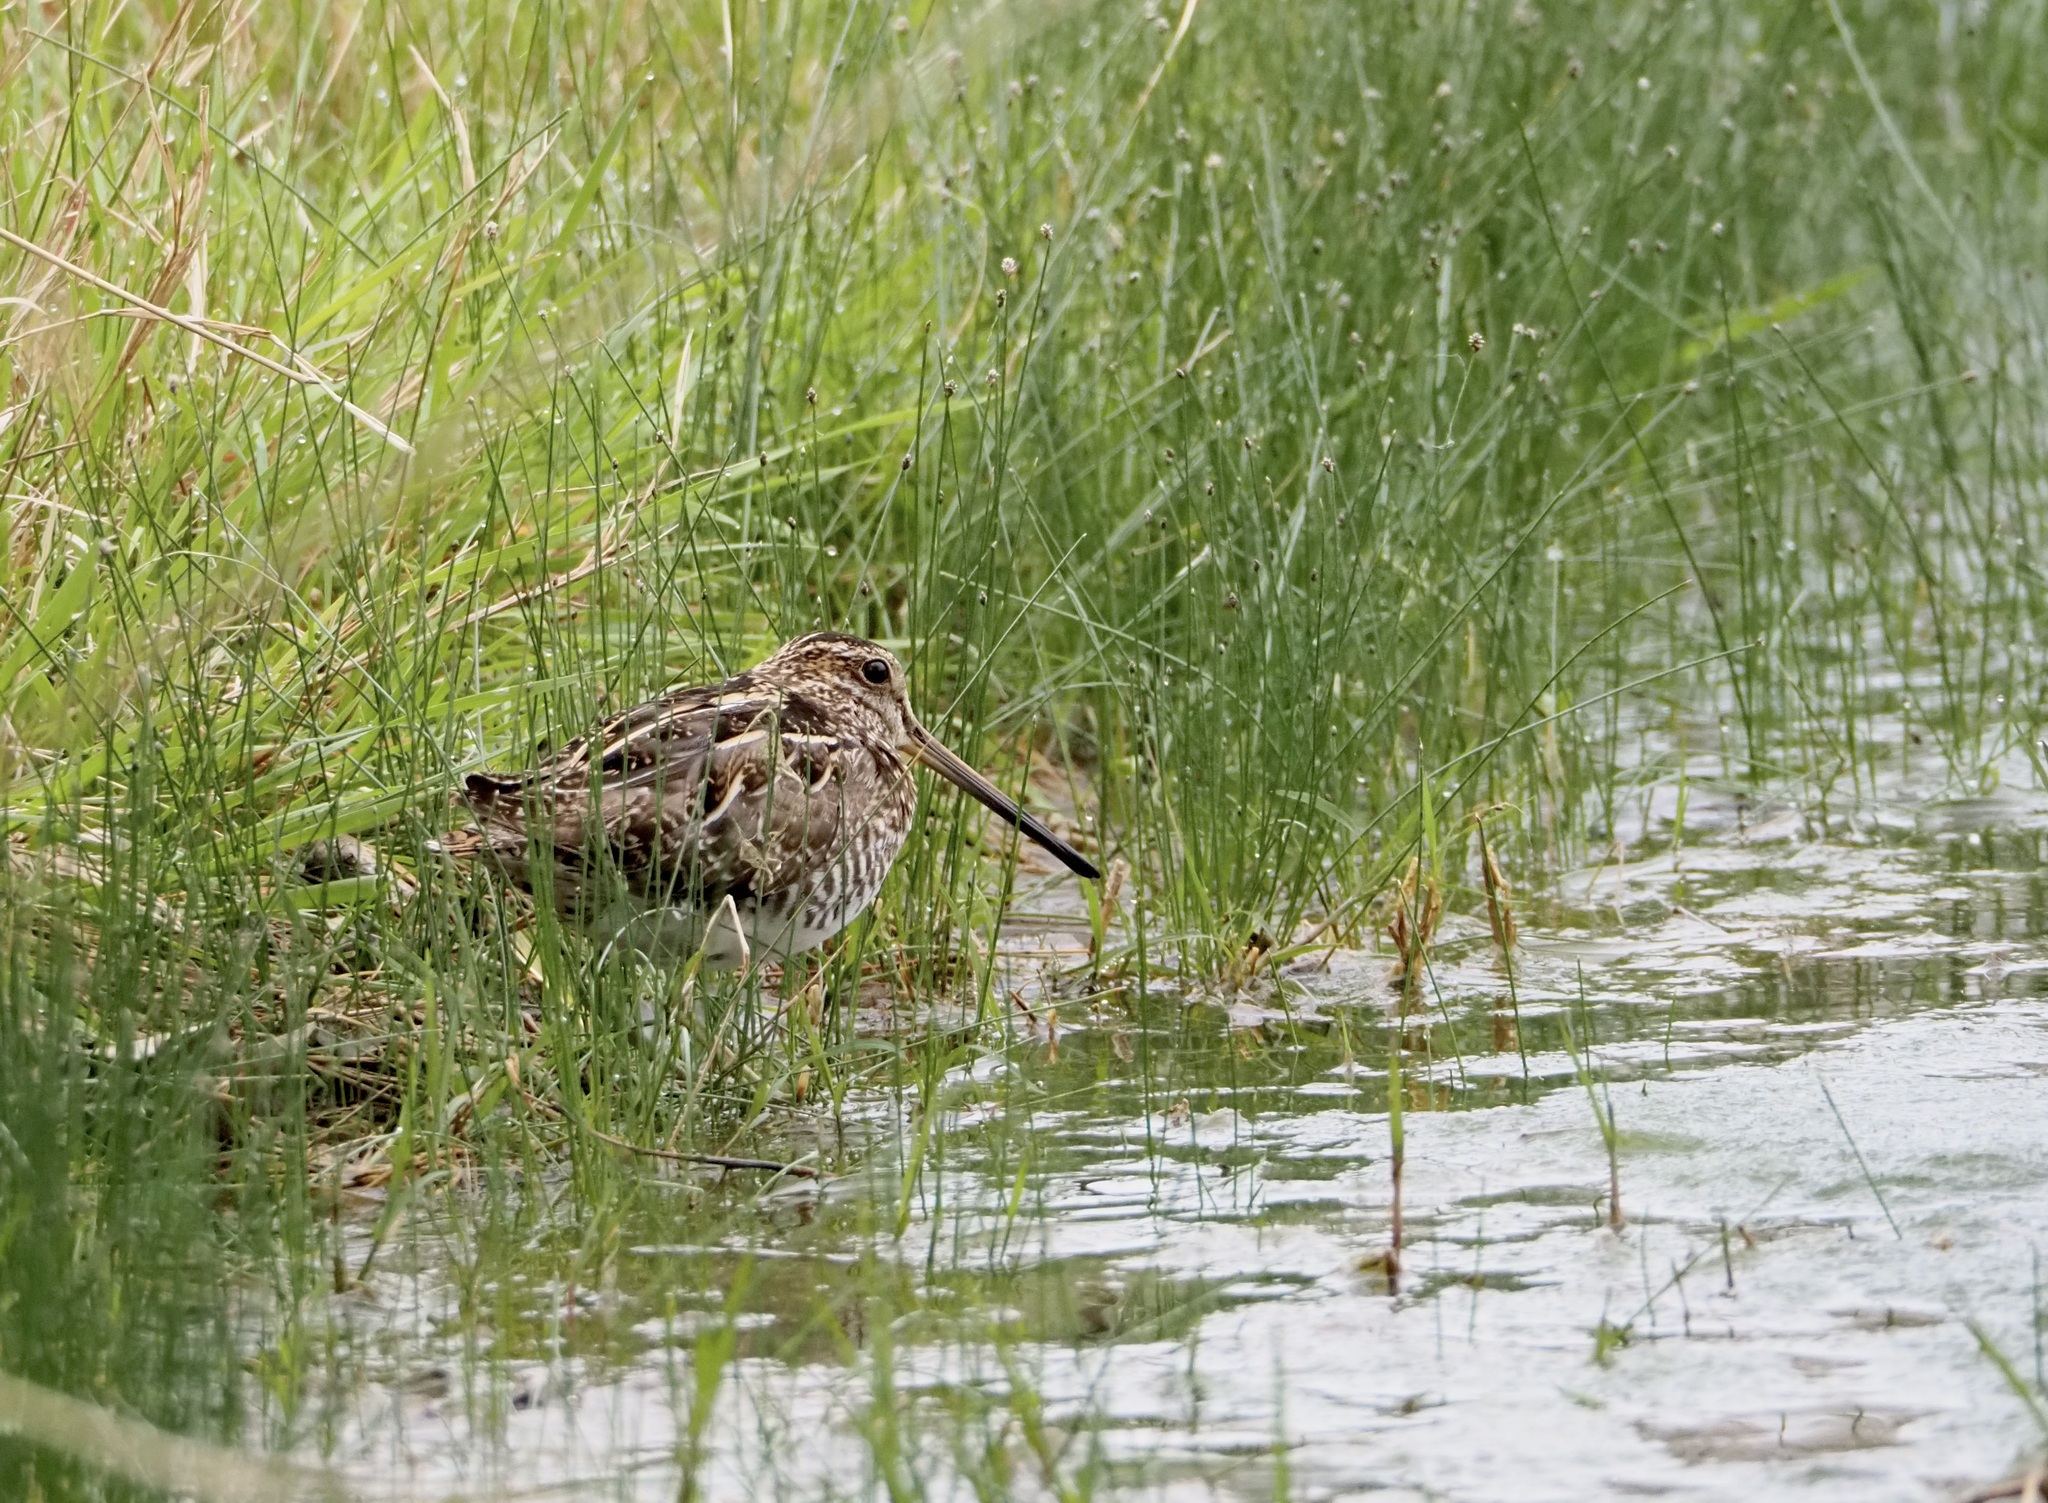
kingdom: Animalia
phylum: Chordata
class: Aves
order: Charadriiformes
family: Scolopacidae
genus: Gallinago
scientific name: Gallinago delicata
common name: Wilson's snipe
